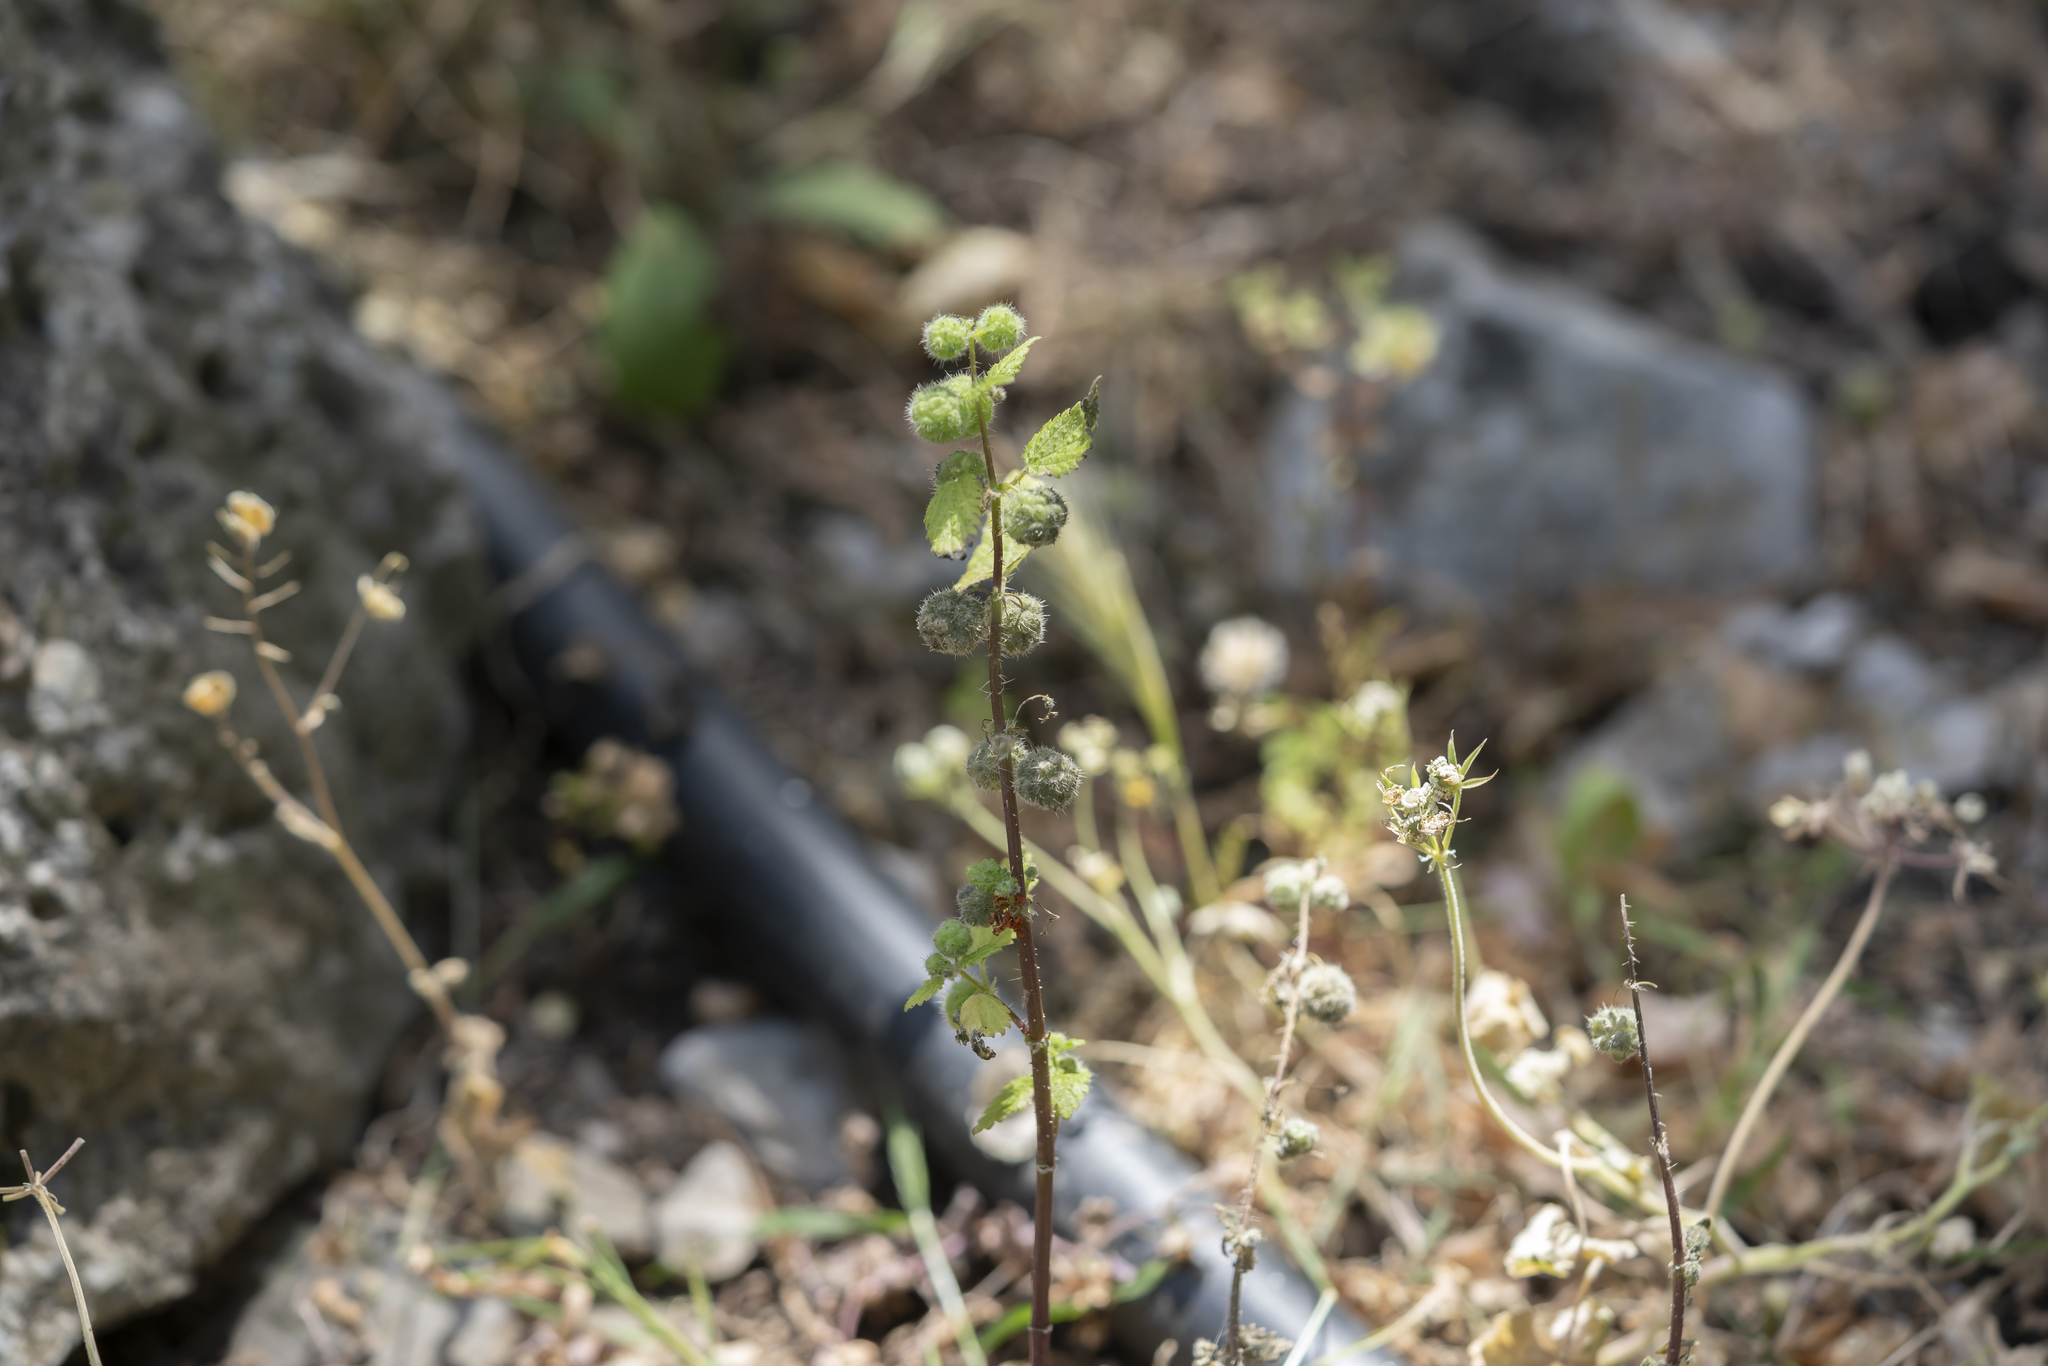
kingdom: Plantae
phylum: Tracheophyta
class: Magnoliopsida
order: Rosales
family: Urticaceae
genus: Urtica
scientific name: Urtica pilulifera
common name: Roman nettle
